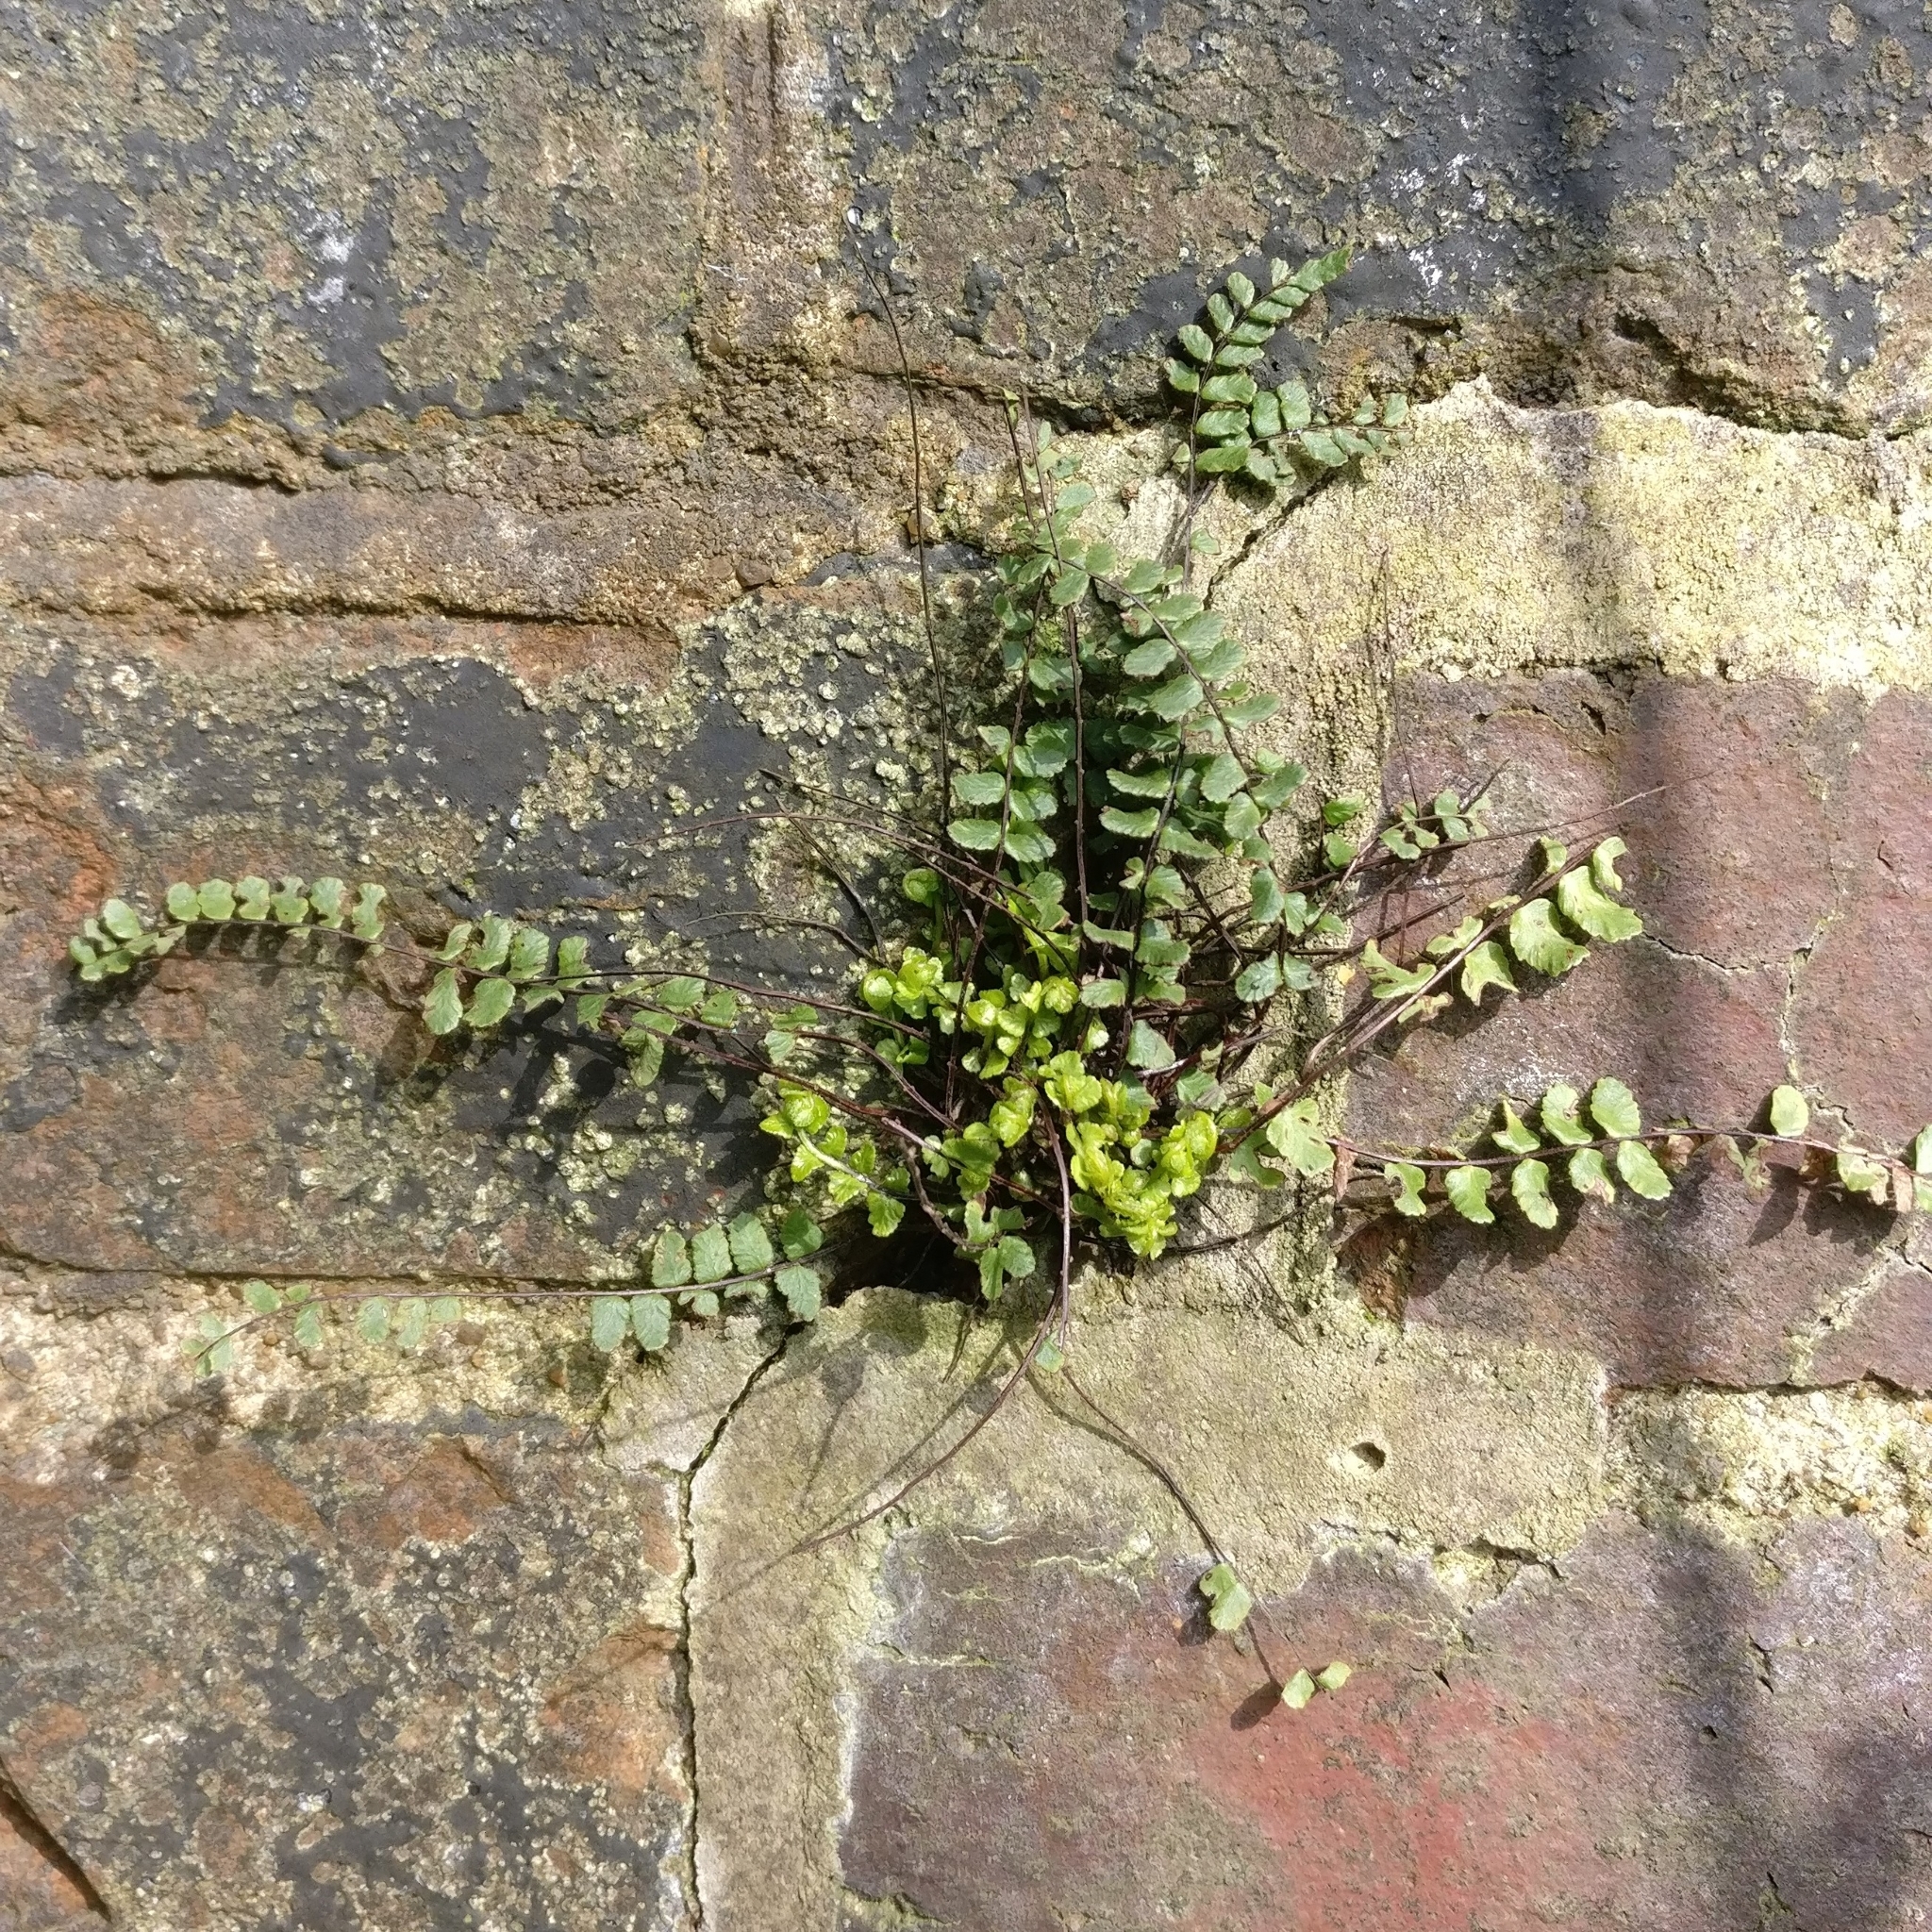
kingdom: Plantae
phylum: Tracheophyta
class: Polypodiopsida
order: Polypodiales
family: Aspleniaceae
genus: Asplenium
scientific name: Asplenium trichomanes
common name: Maidenhair spleenwort
